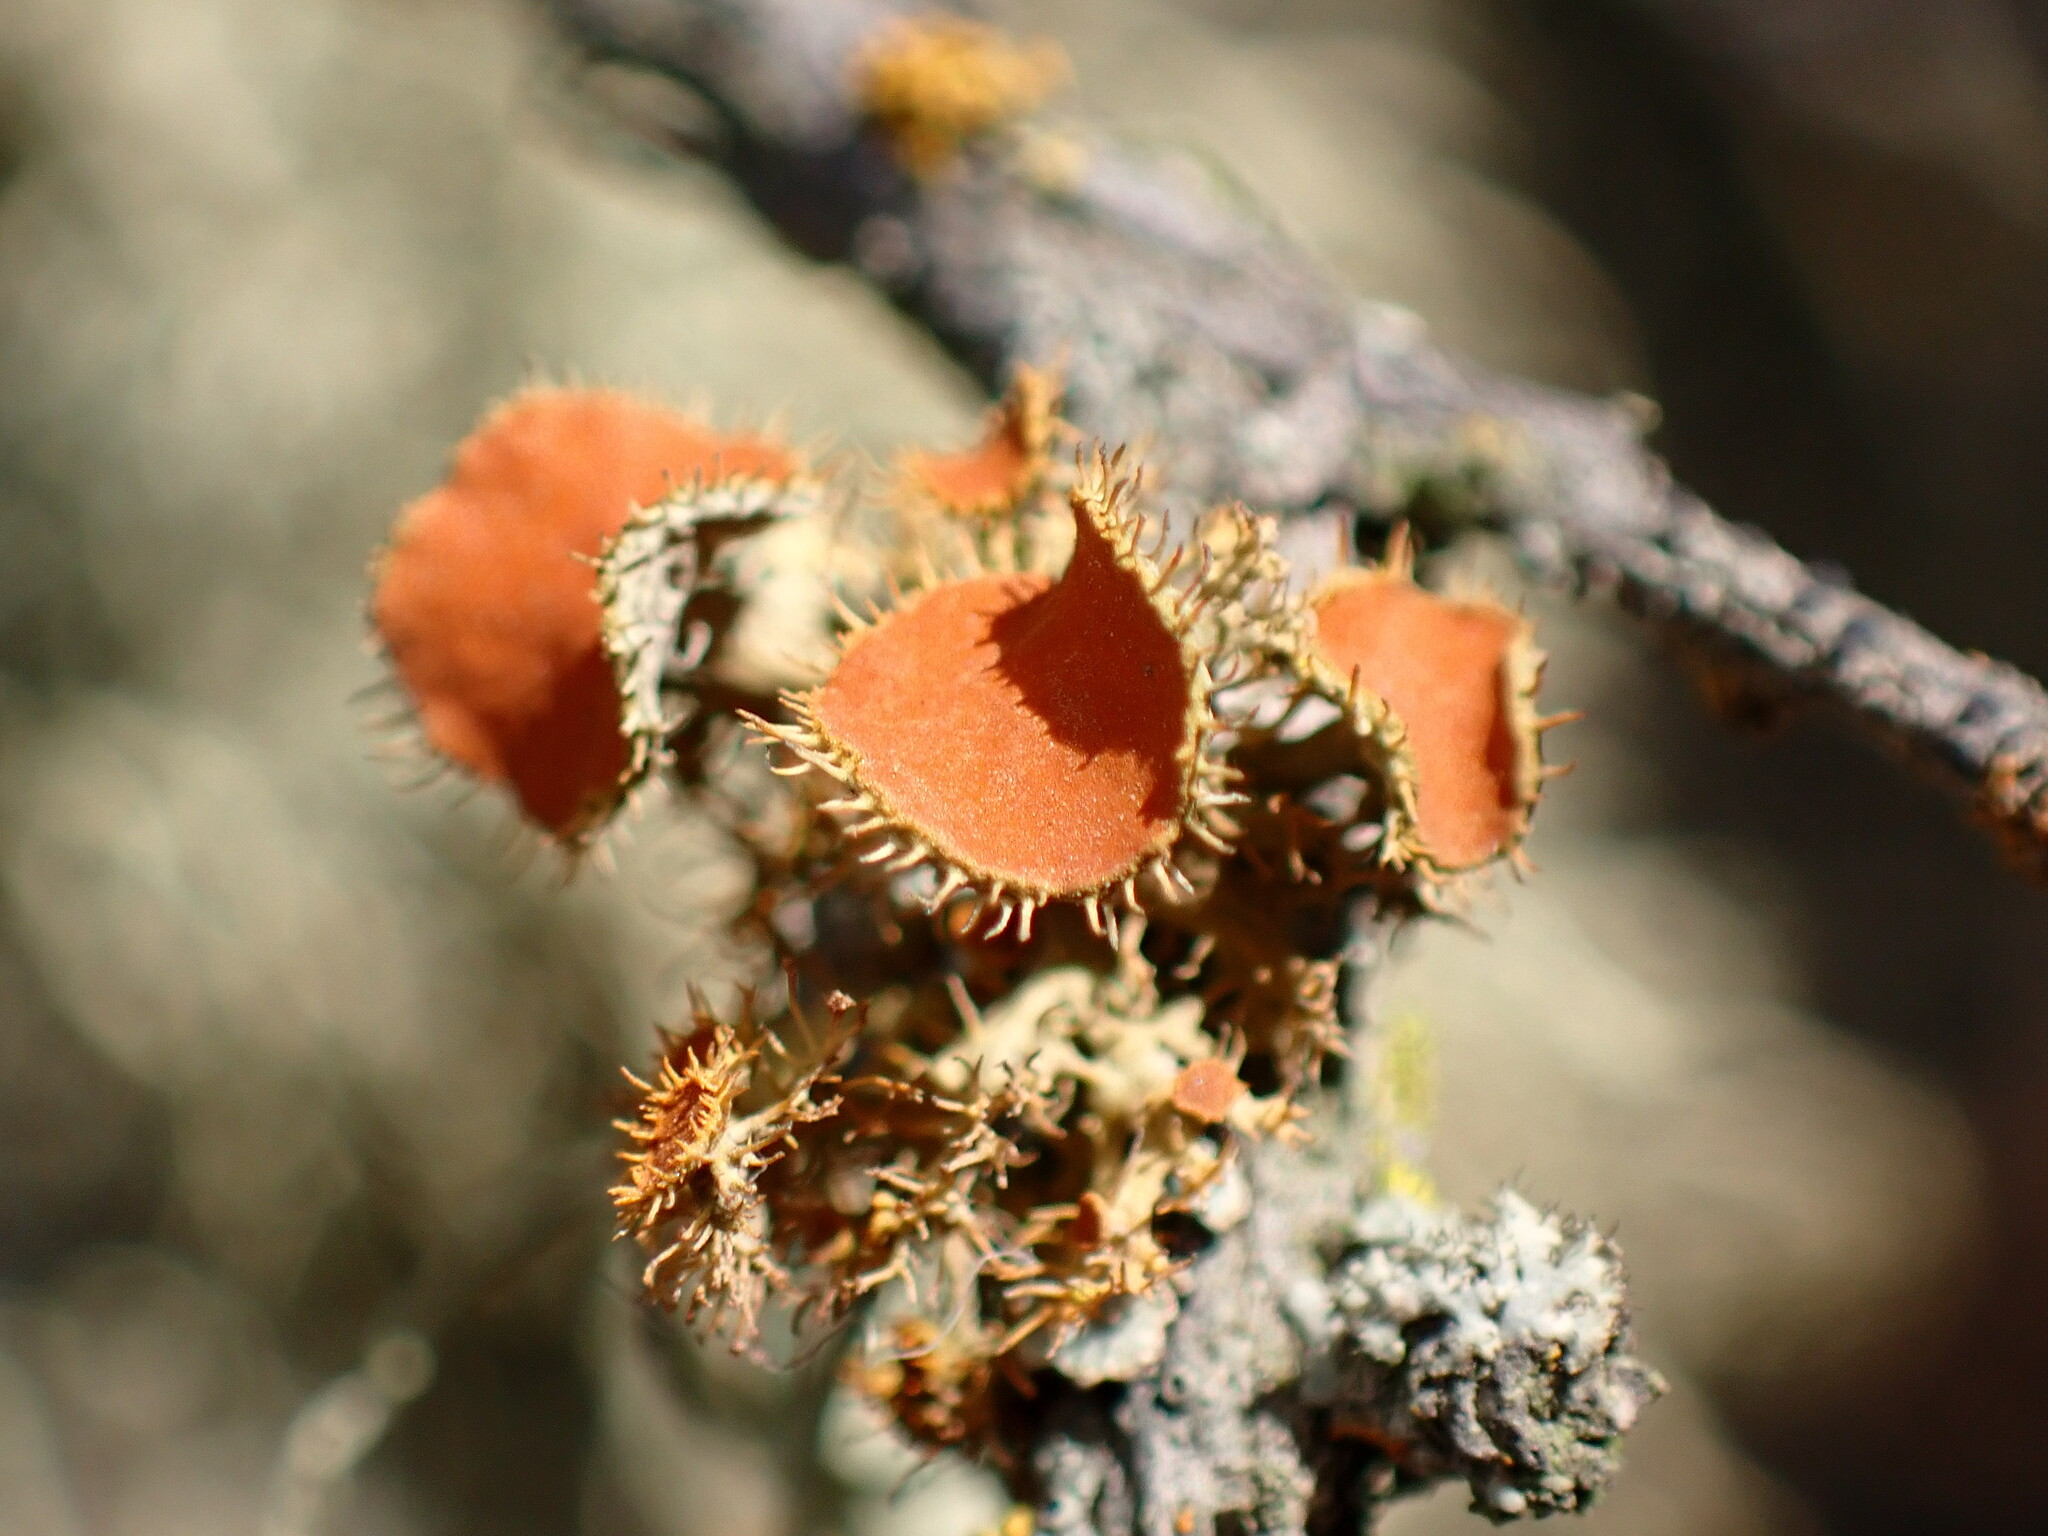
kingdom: Fungi
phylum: Ascomycota
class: Lecanoromycetes
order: Teloschistales
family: Teloschistaceae
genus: Niorma
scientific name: Niorma chrysophthalma
